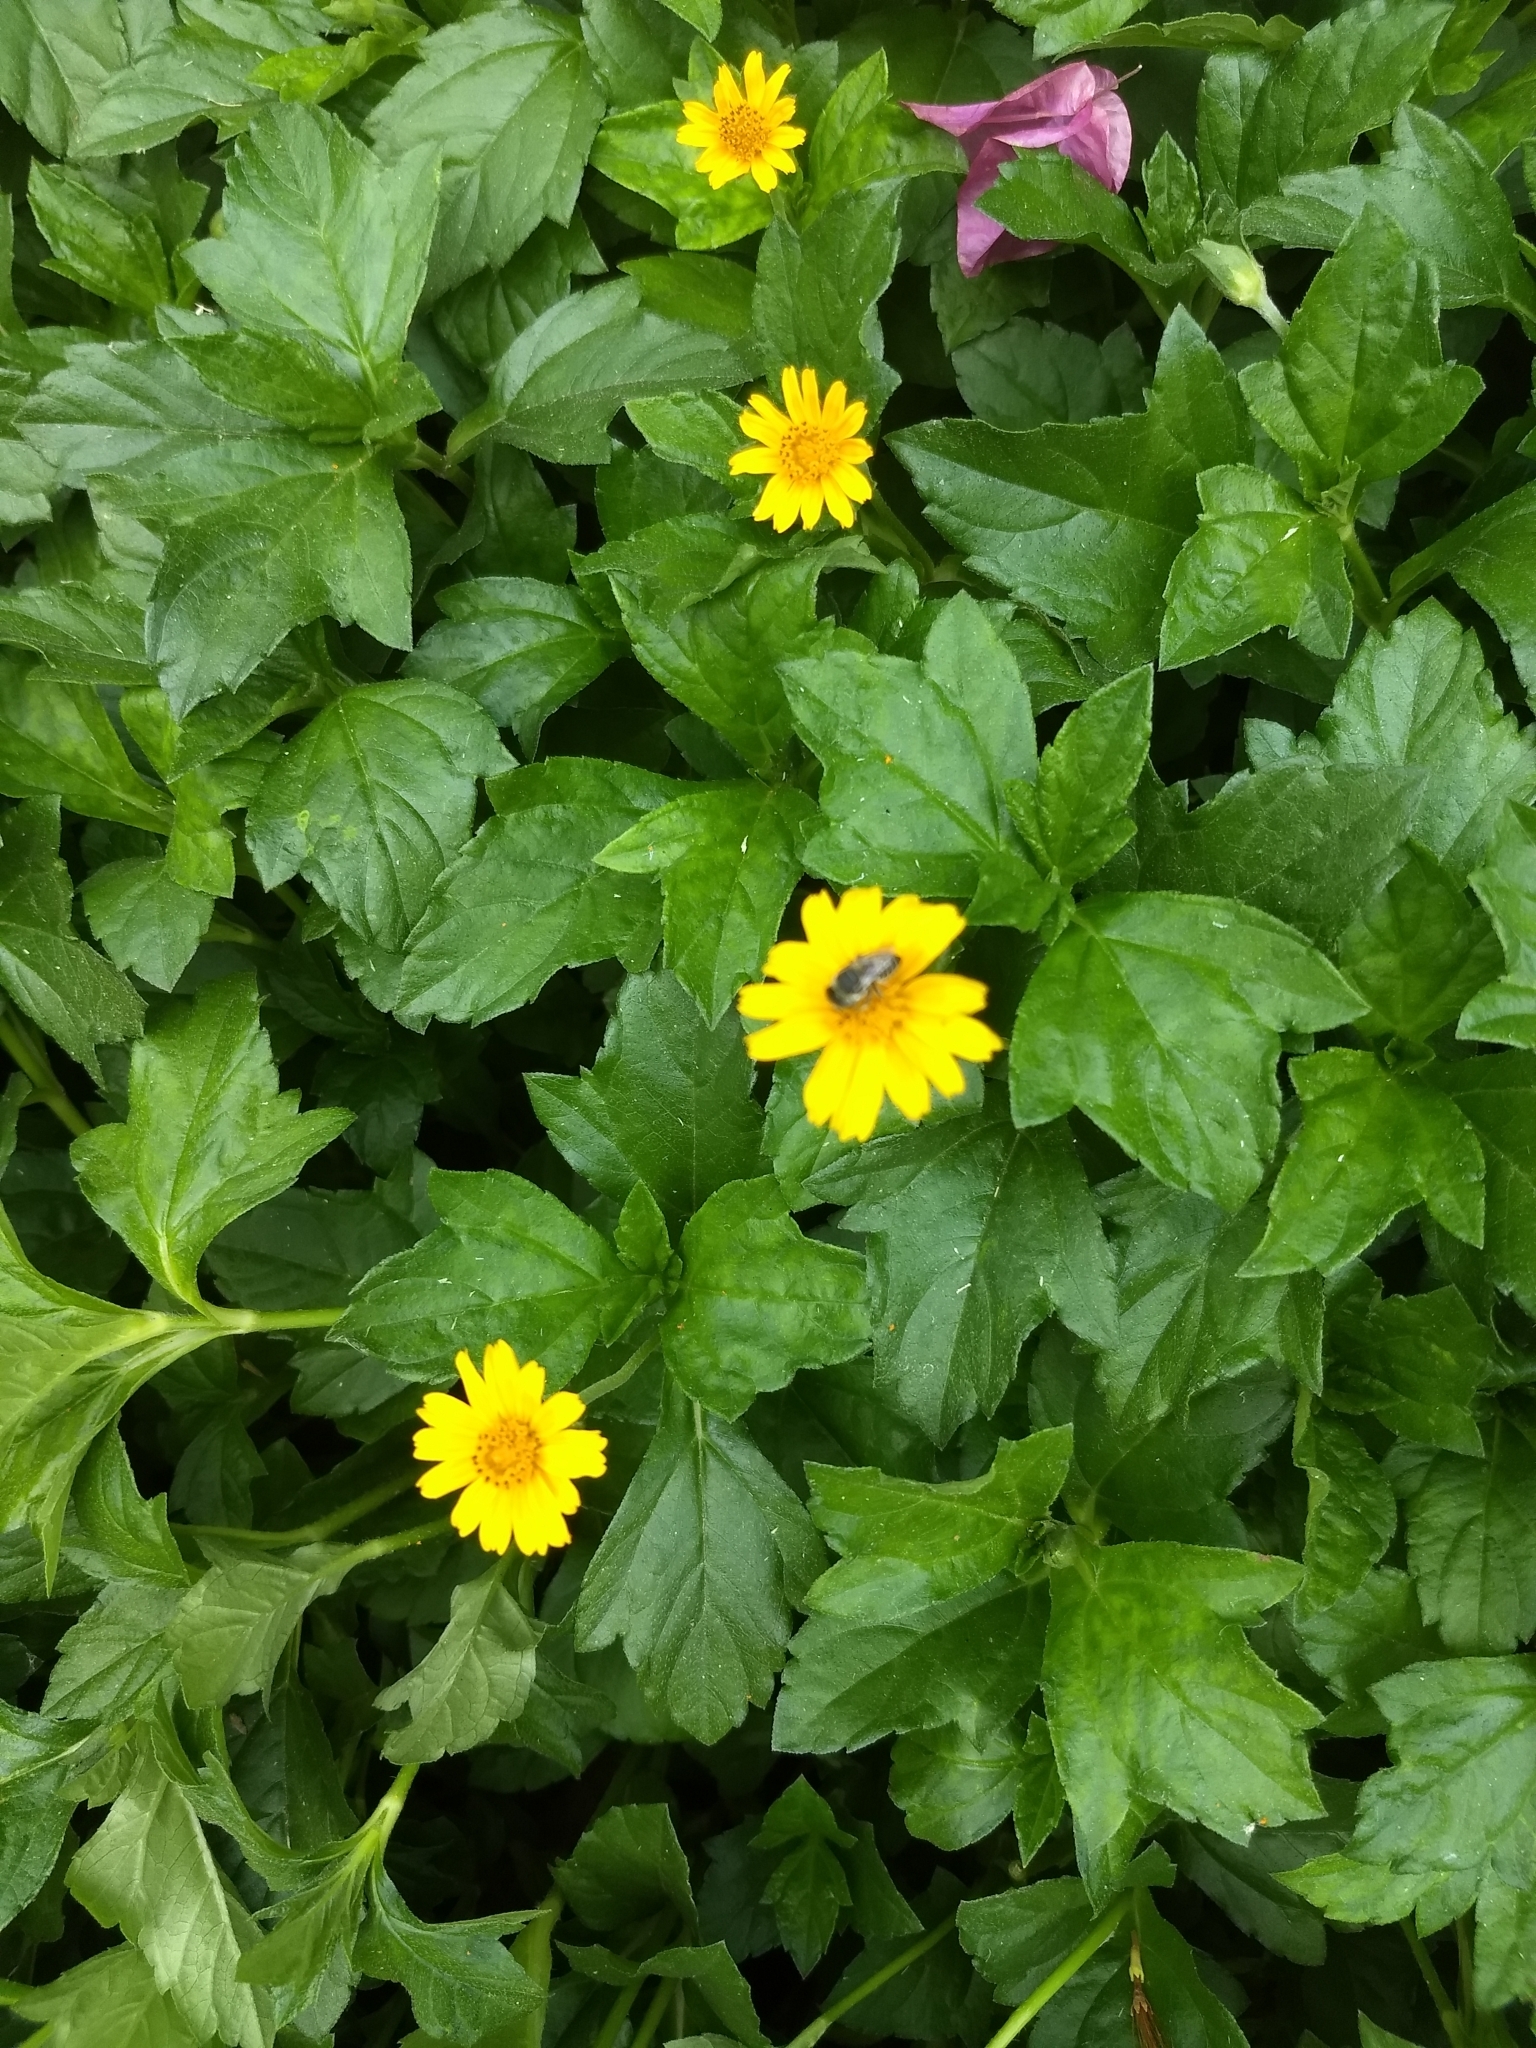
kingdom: Plantae
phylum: Tracheophyta
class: Magnoliopsida
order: Asterales
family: Asteraceae
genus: Sphagneticola
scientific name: Sphagneticola trilobata
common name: Bay biscayne creeping-oxeye
